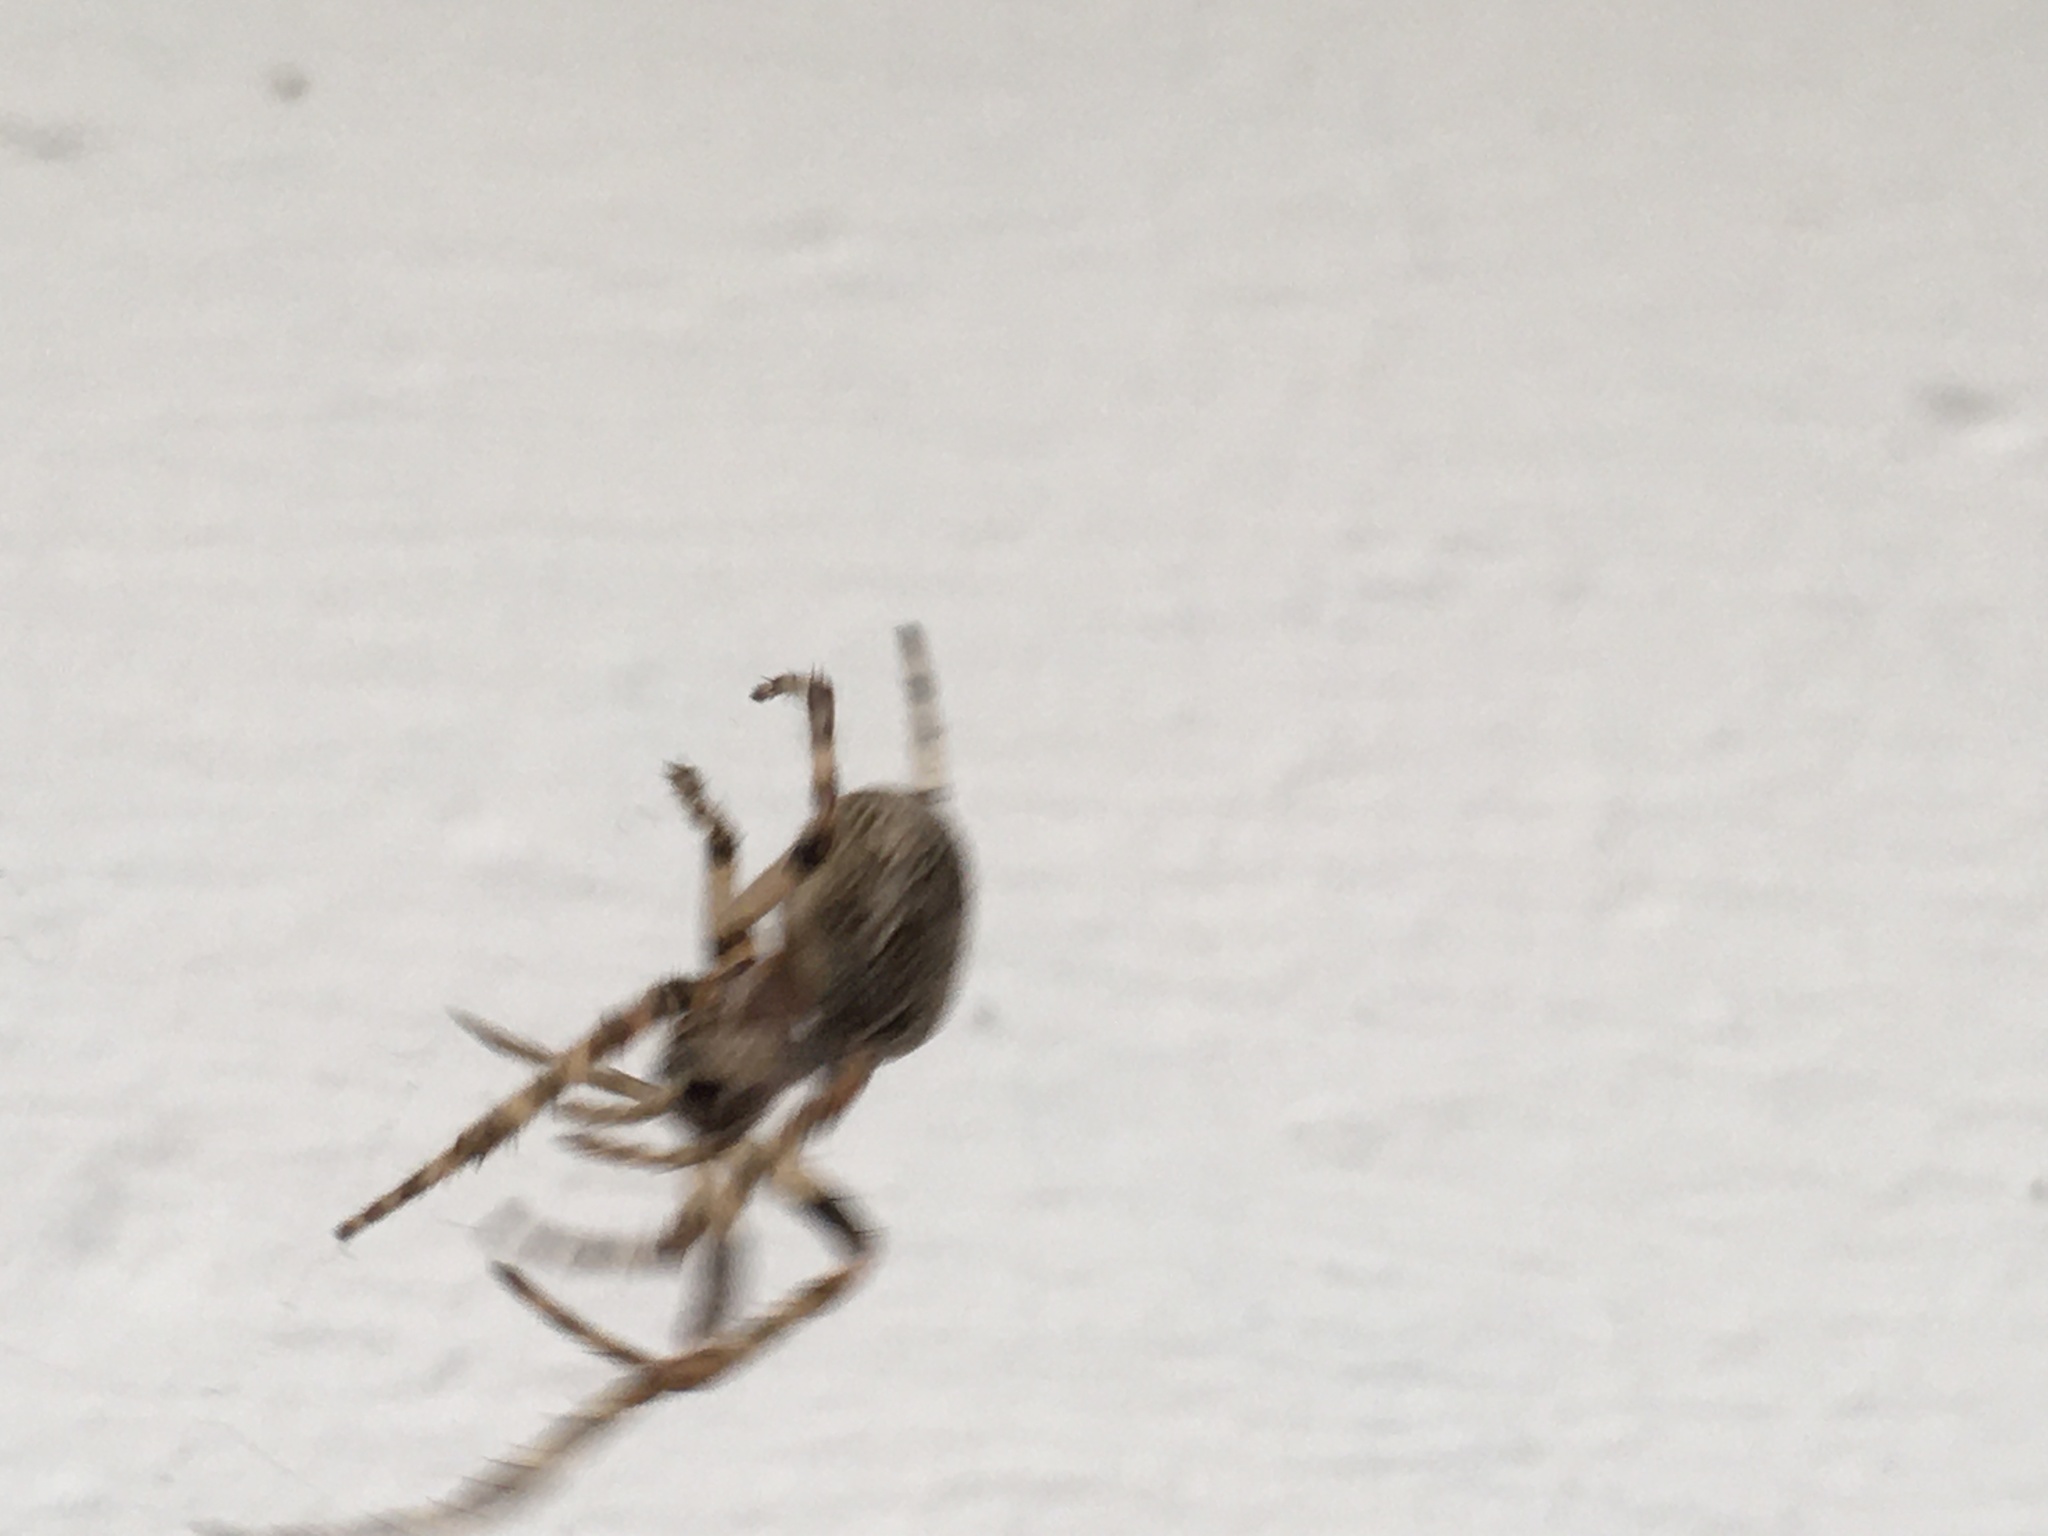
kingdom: Animalia
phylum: Arthropoda
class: Arachnida
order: Araneae
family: Araneidae
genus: Larinioides
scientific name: Larinioides sclopetarius
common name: Bridge orbweaver
